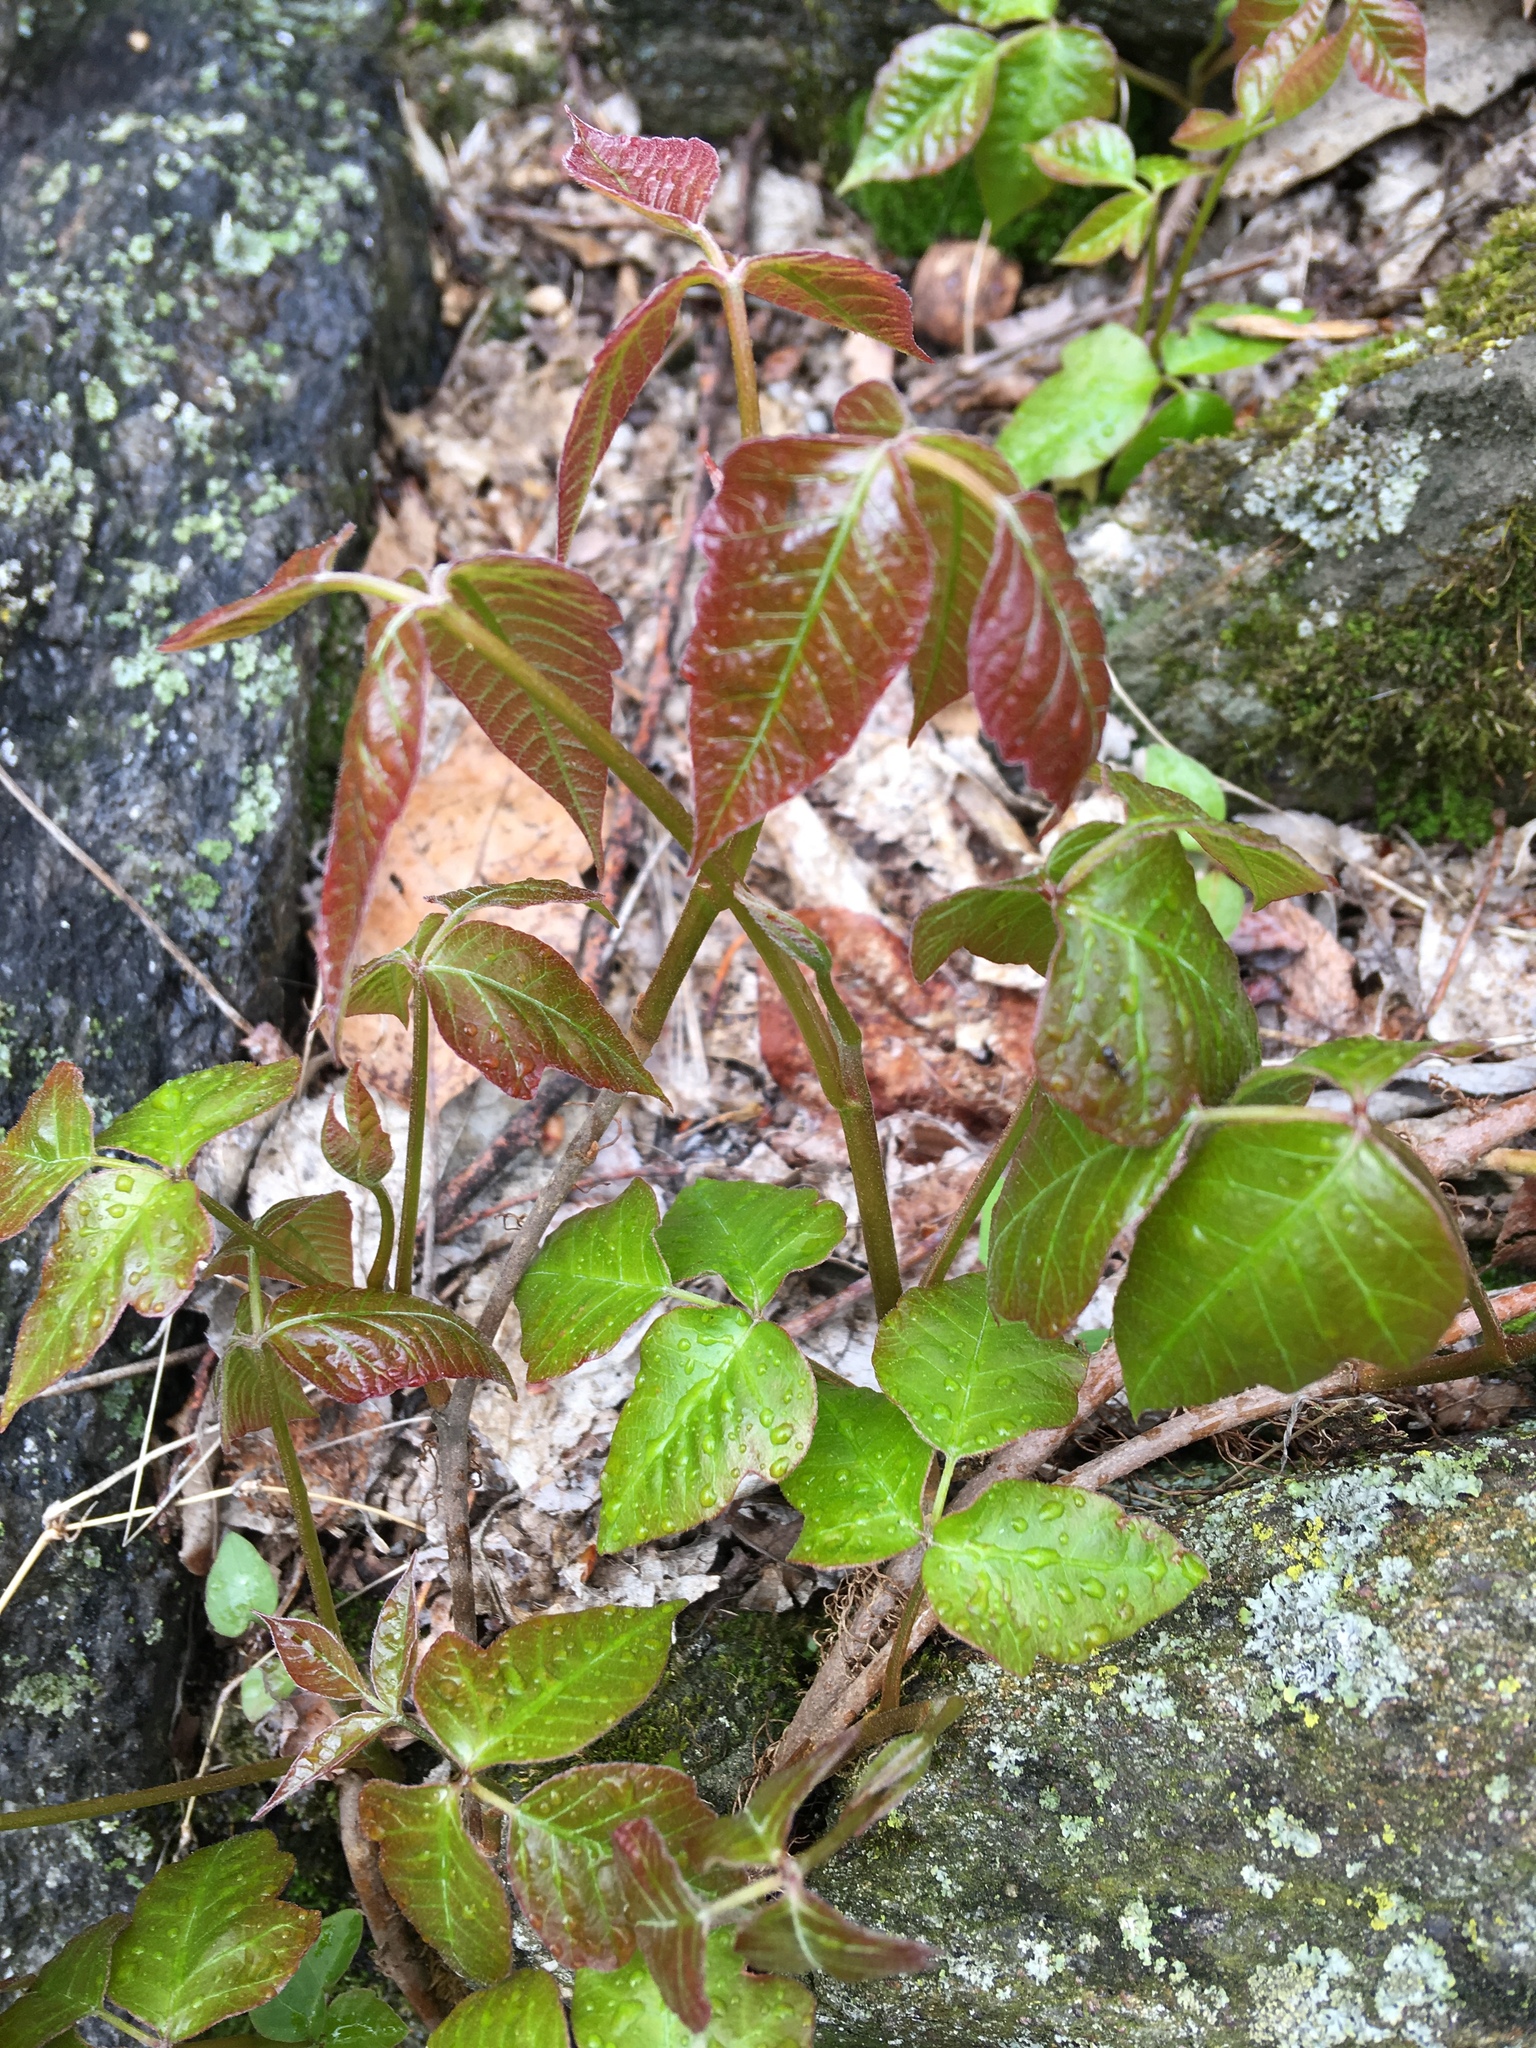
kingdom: Plantae
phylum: Tracheophyta
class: Magnoliopsida
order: Sapindales
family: Anacardiaceae
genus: Toxicodendron
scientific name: Toxicodendron radicans
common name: Poison ivy
